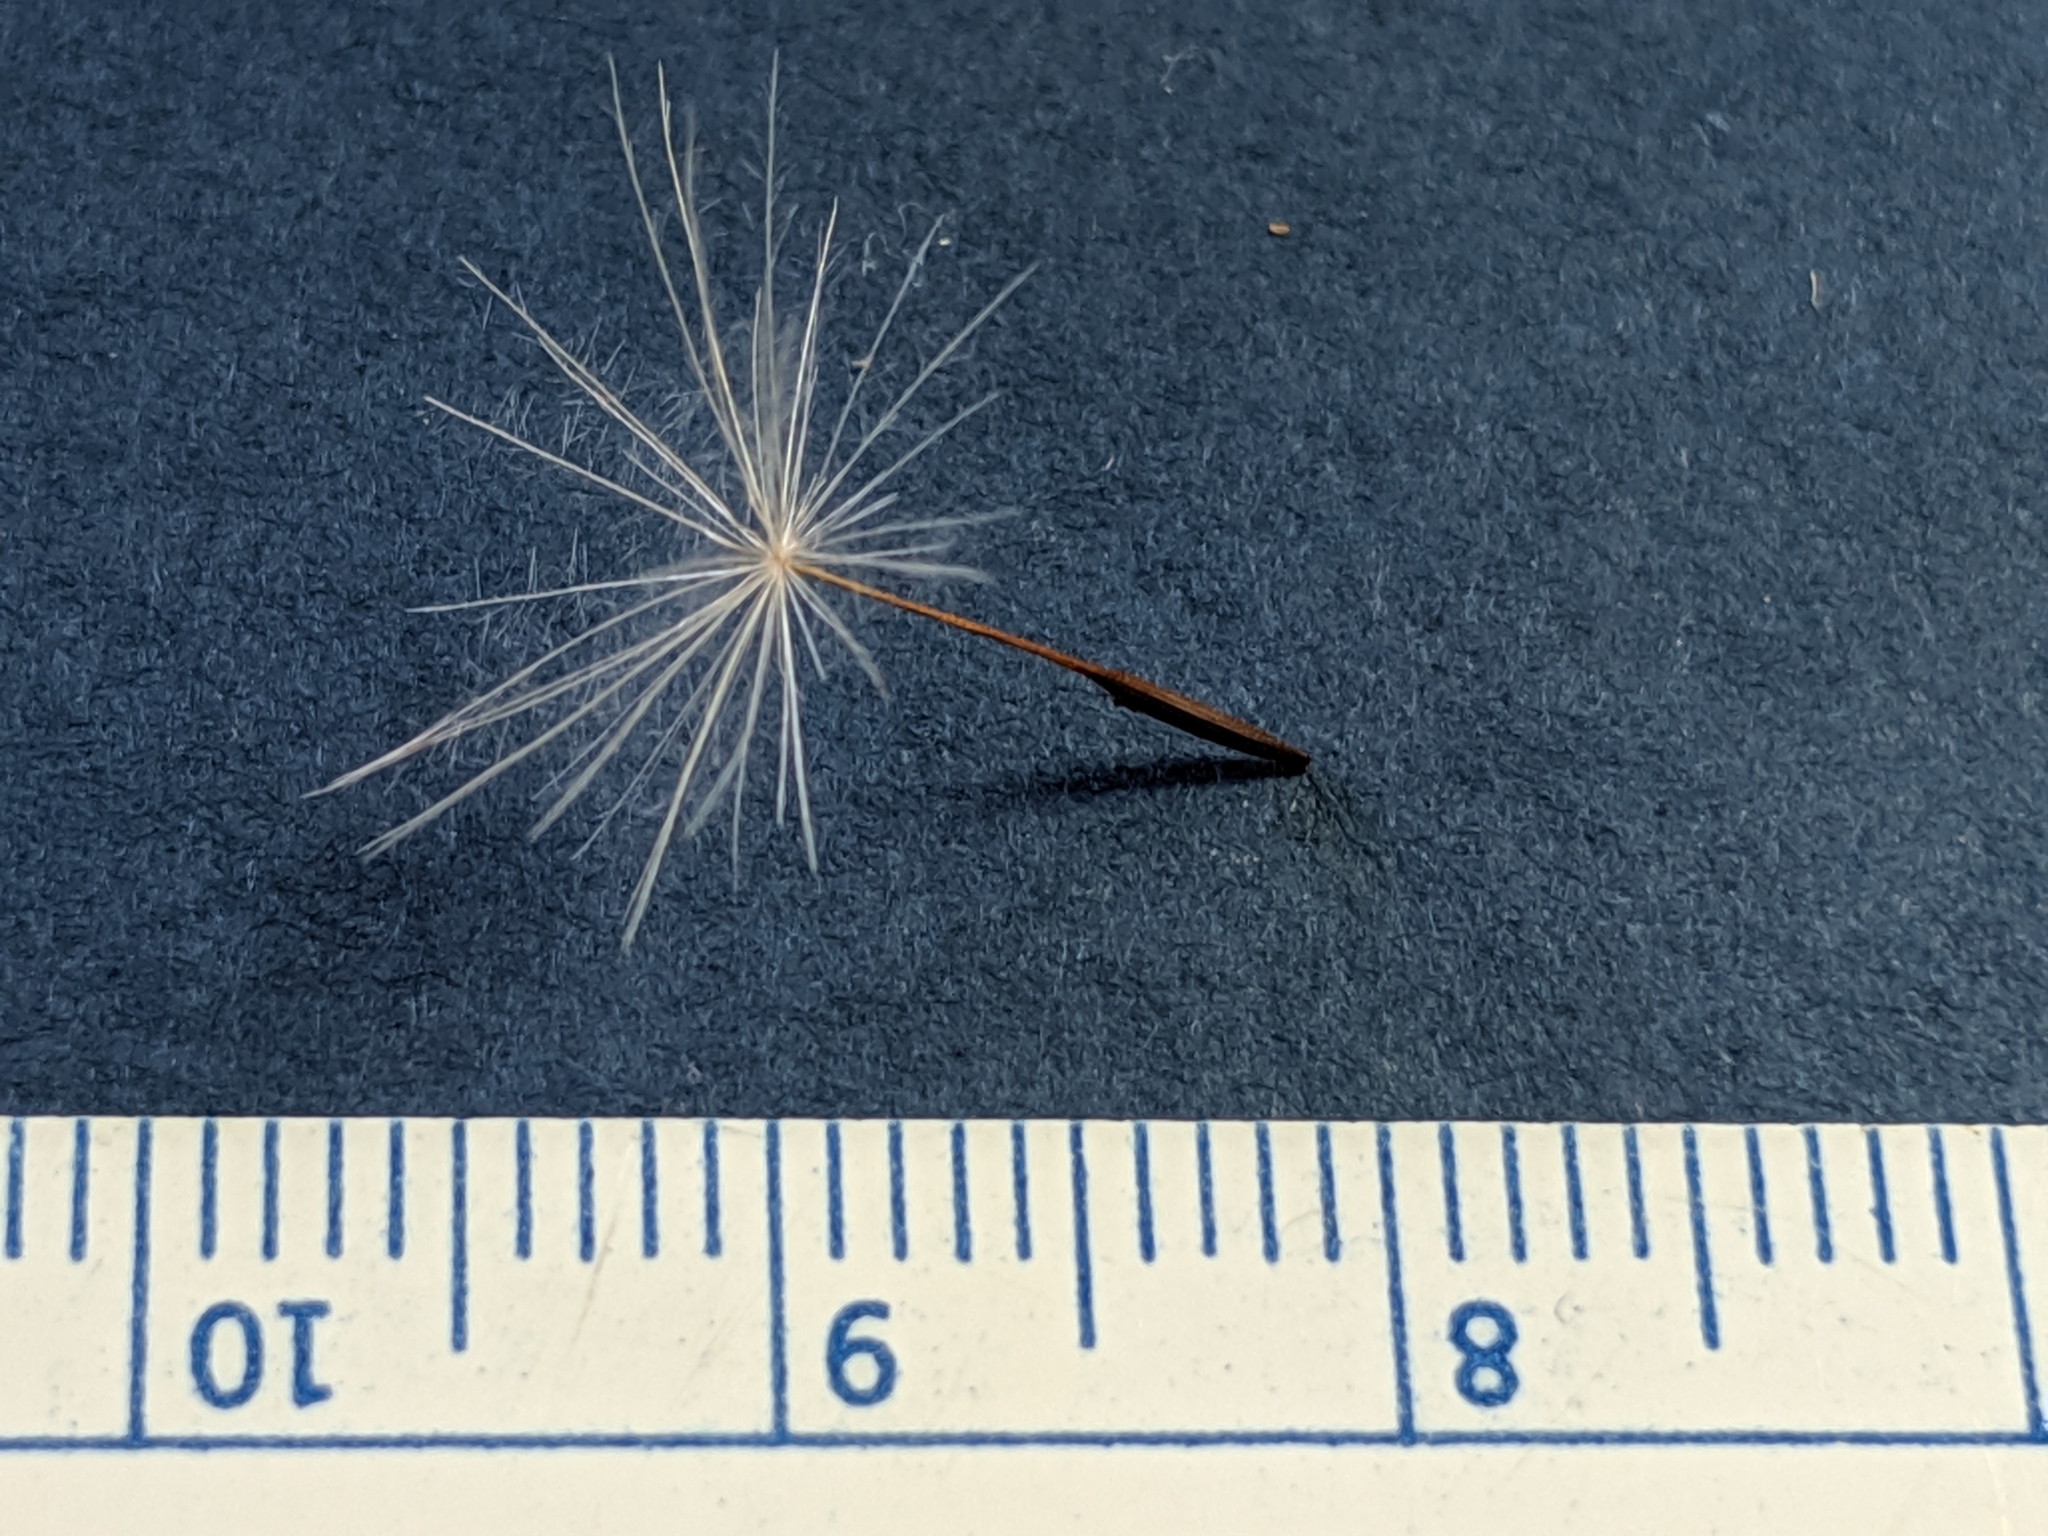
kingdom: Plantae
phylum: Tracheophyta
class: Magnoliopsida
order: Asterales
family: Asteraceae
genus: Hypochaeris
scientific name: Hypochaeris radicata
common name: Flatweed
